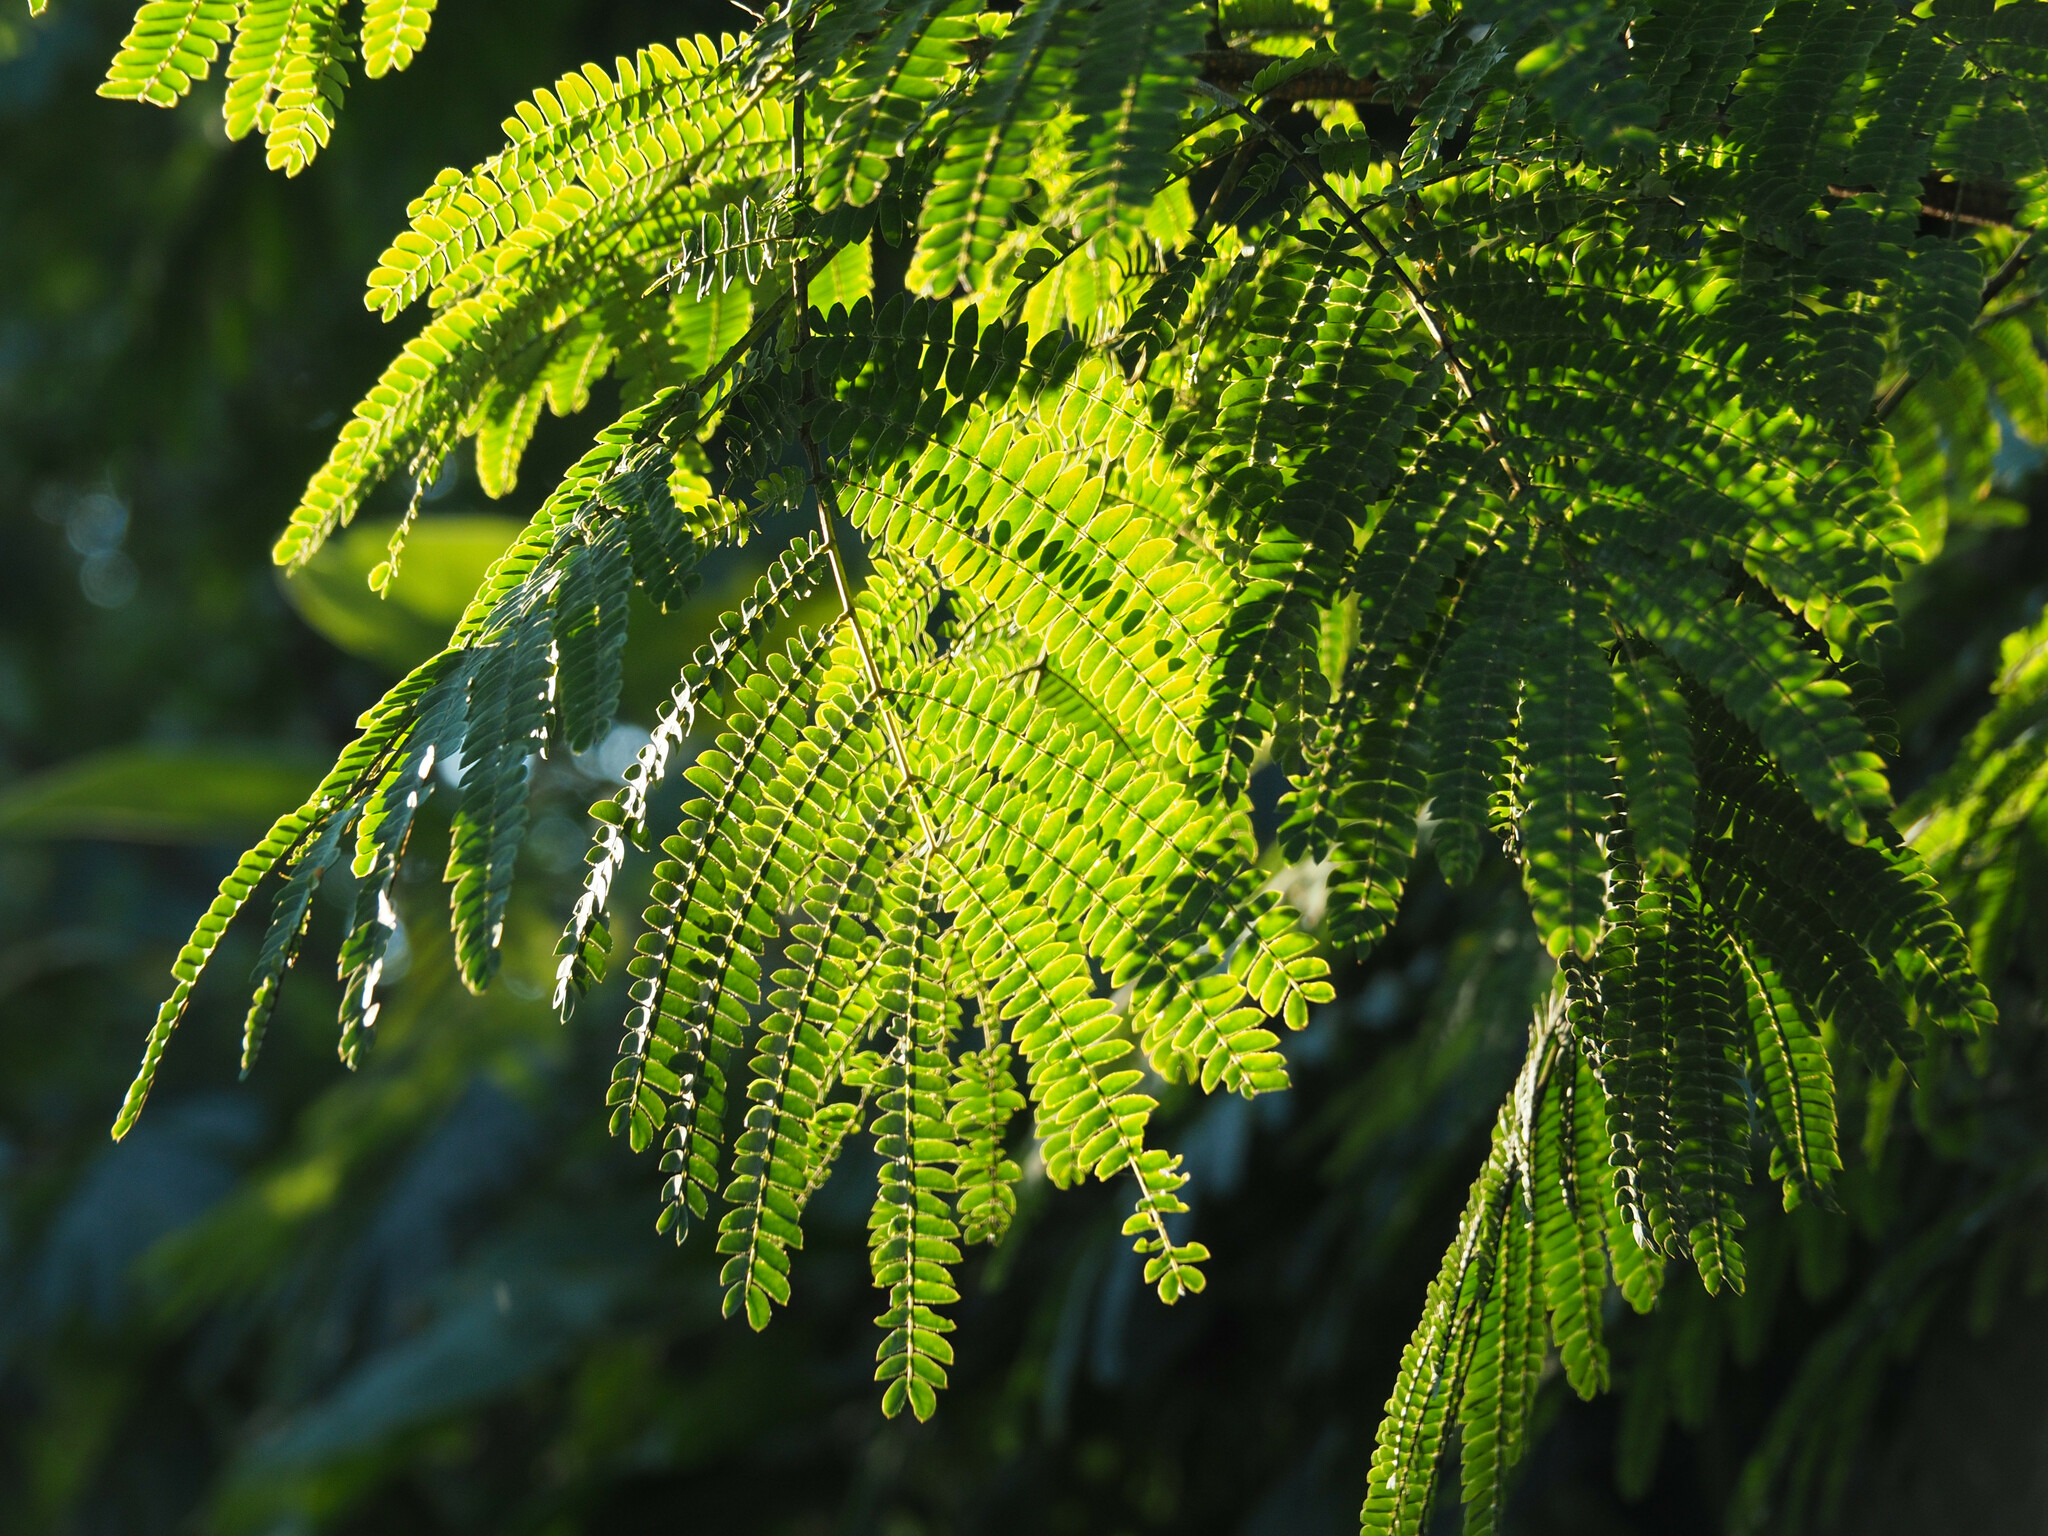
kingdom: Plantae
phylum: Tracheophyta
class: Magnoliopsida
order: Fabales
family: Fabaceae
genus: Albizia
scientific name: Albizia julibrissin
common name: Silktree
